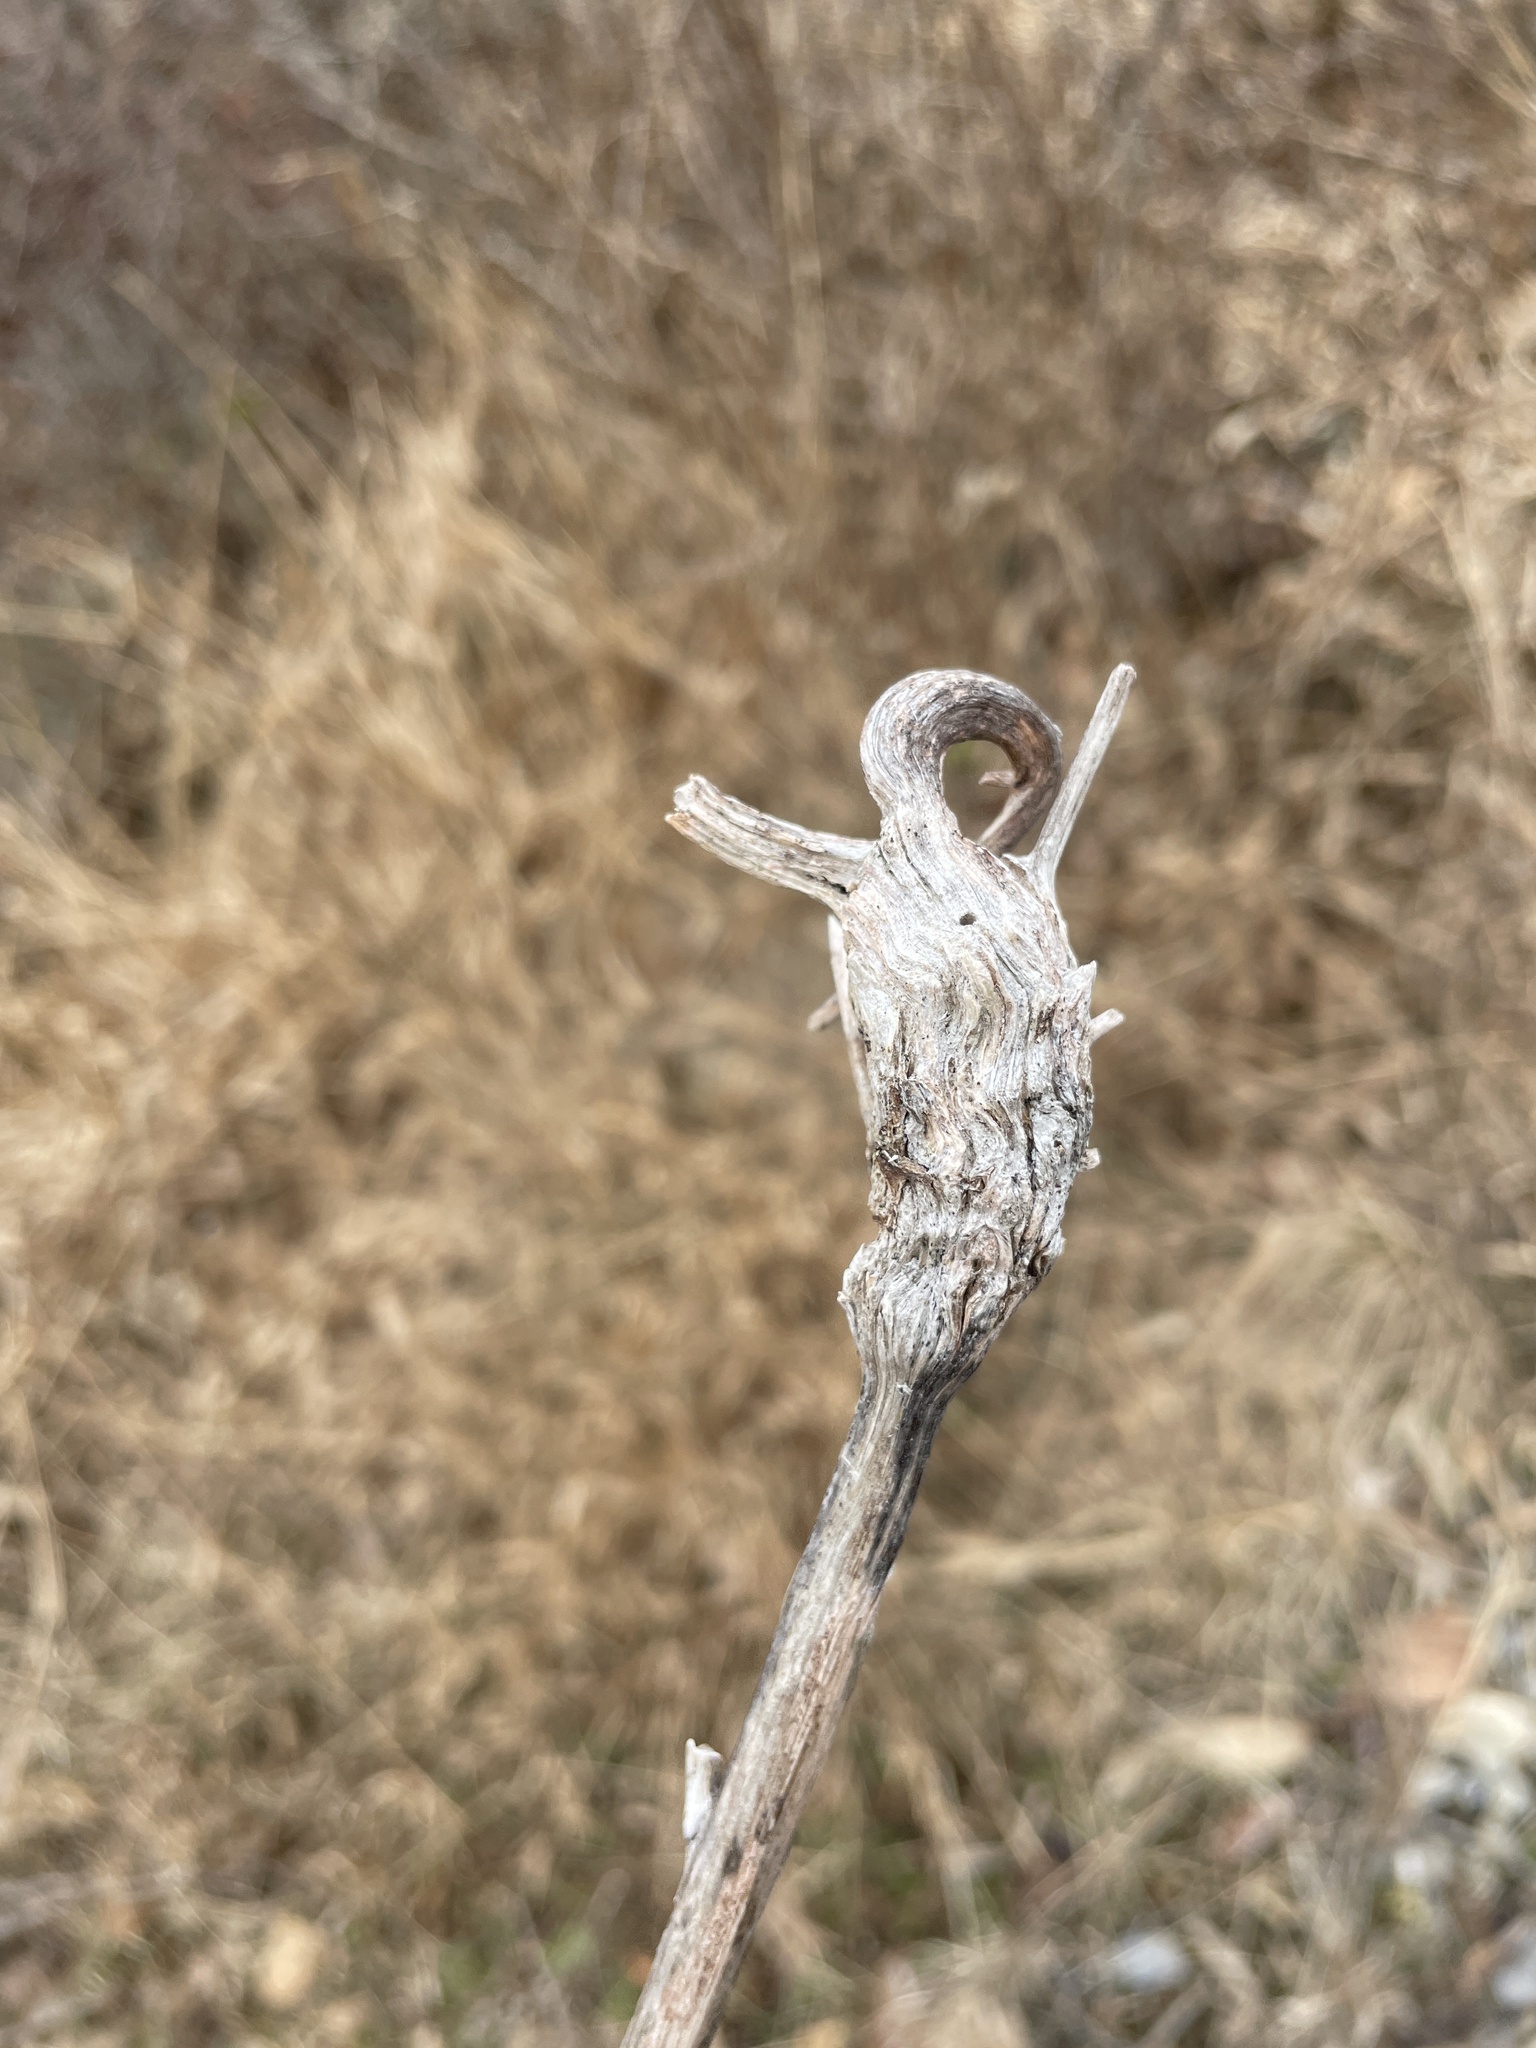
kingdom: Animalia
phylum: Arthropoda
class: Insecta
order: Hymenoptera
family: Cynipidae
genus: Aulacidea
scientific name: Aulacidea
